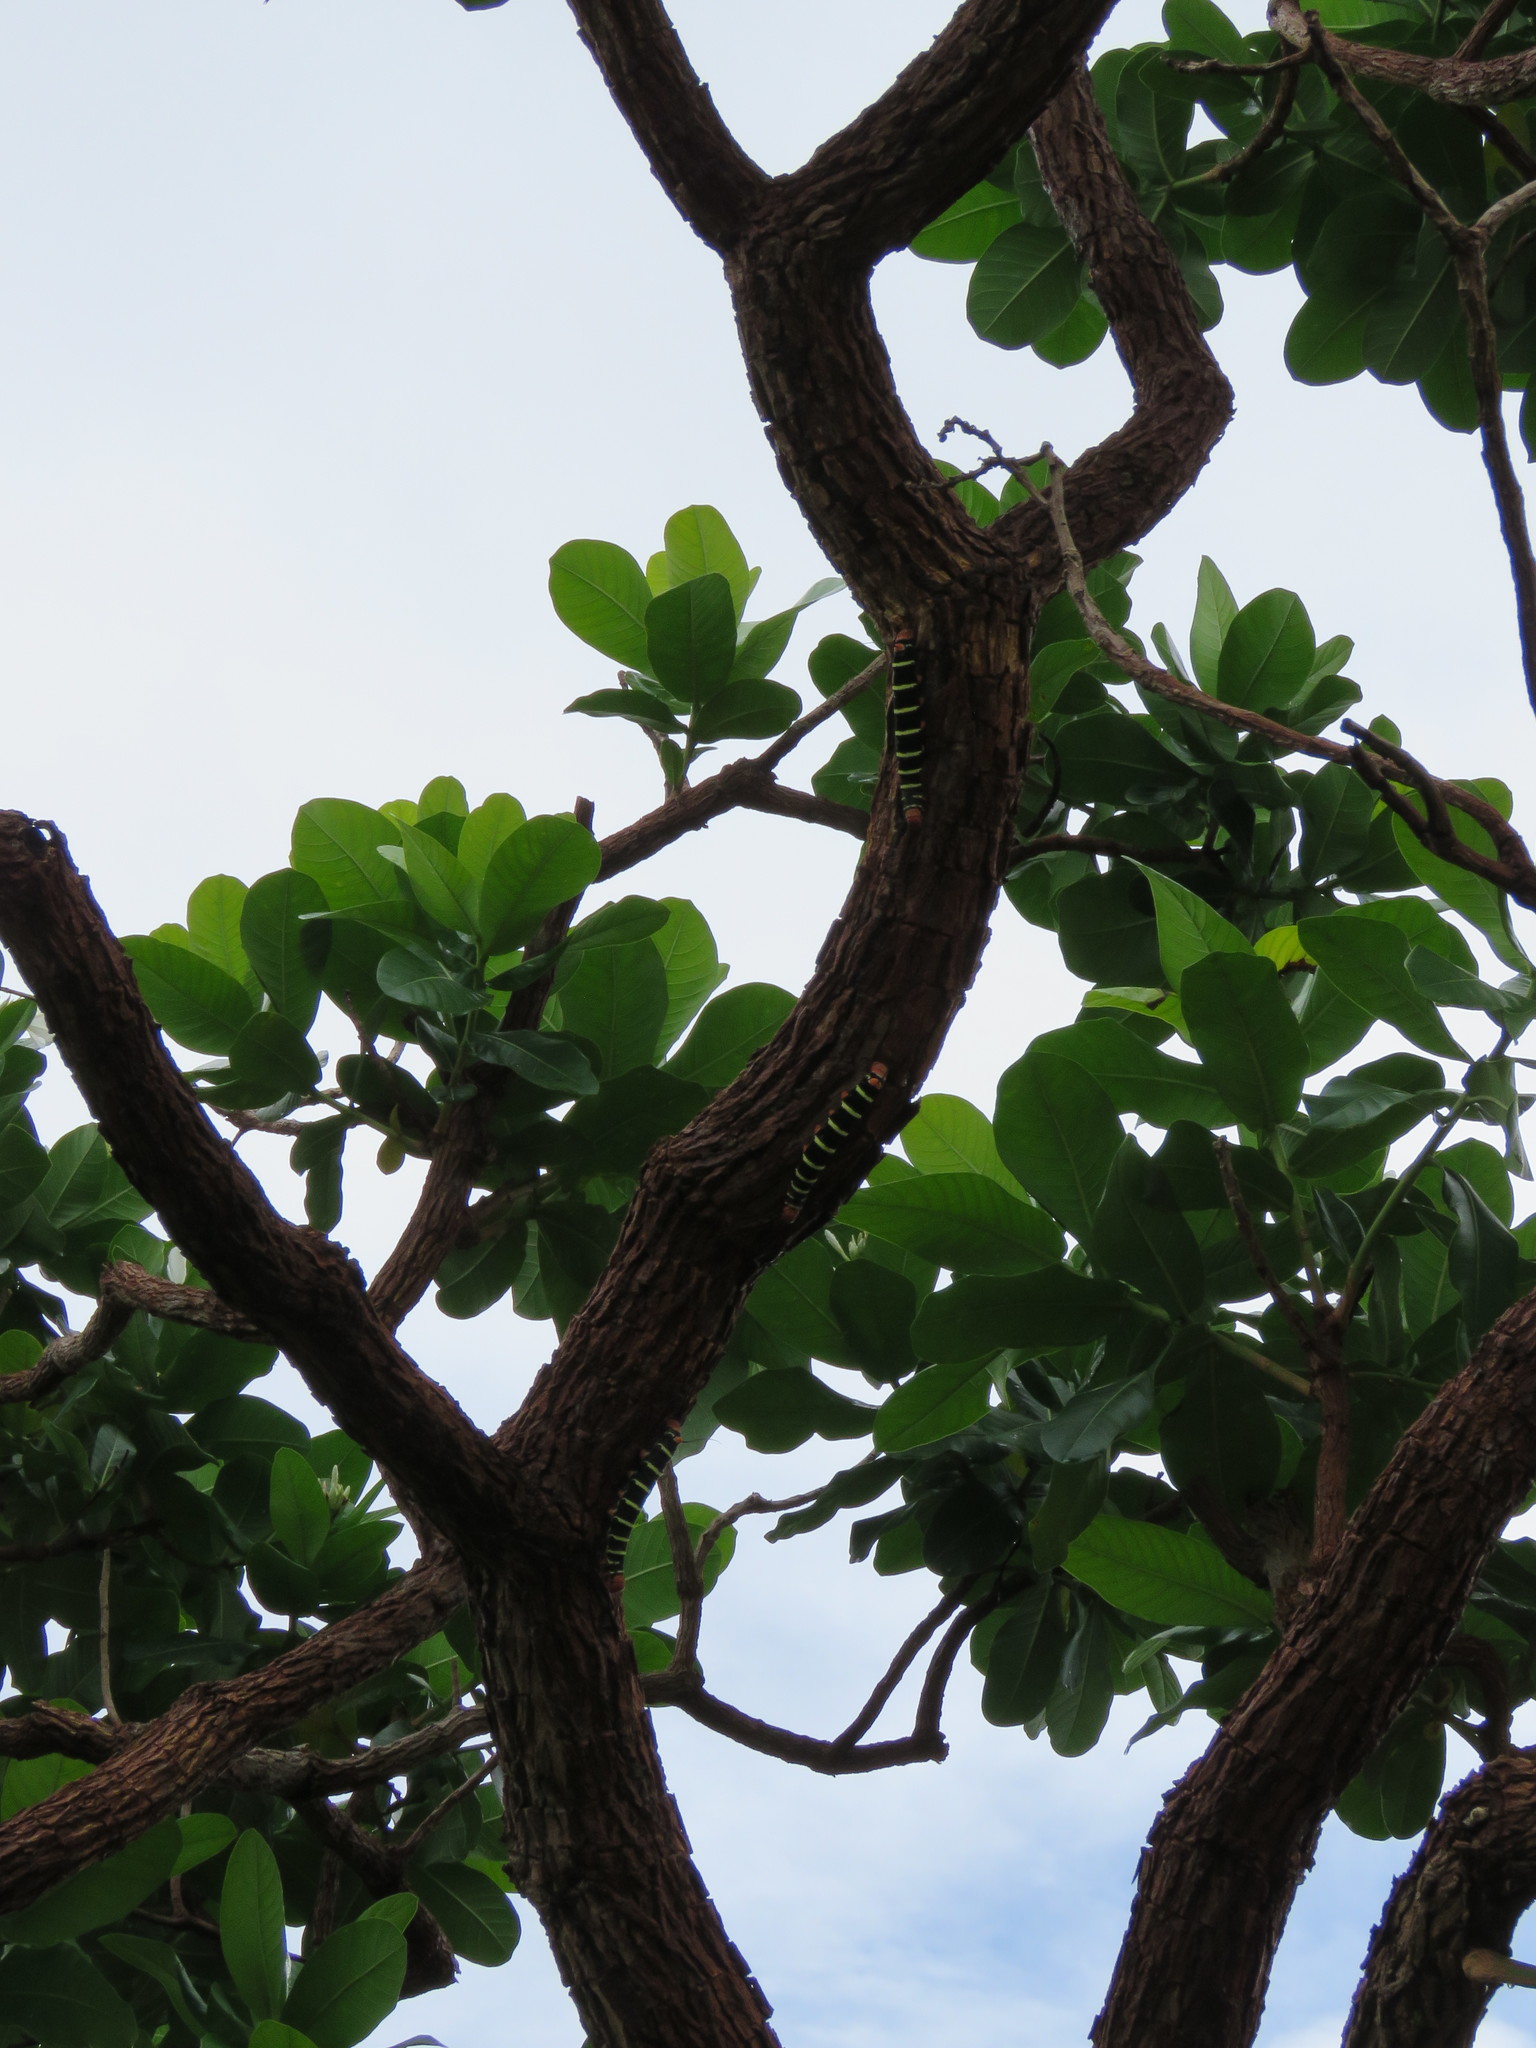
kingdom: Animalia
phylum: Arthropoda
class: Insecta
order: Lepidoptera
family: Sphingidae
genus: Pseudosphinx
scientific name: Pseudosphinx tetrio
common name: Tetrio sphinx
